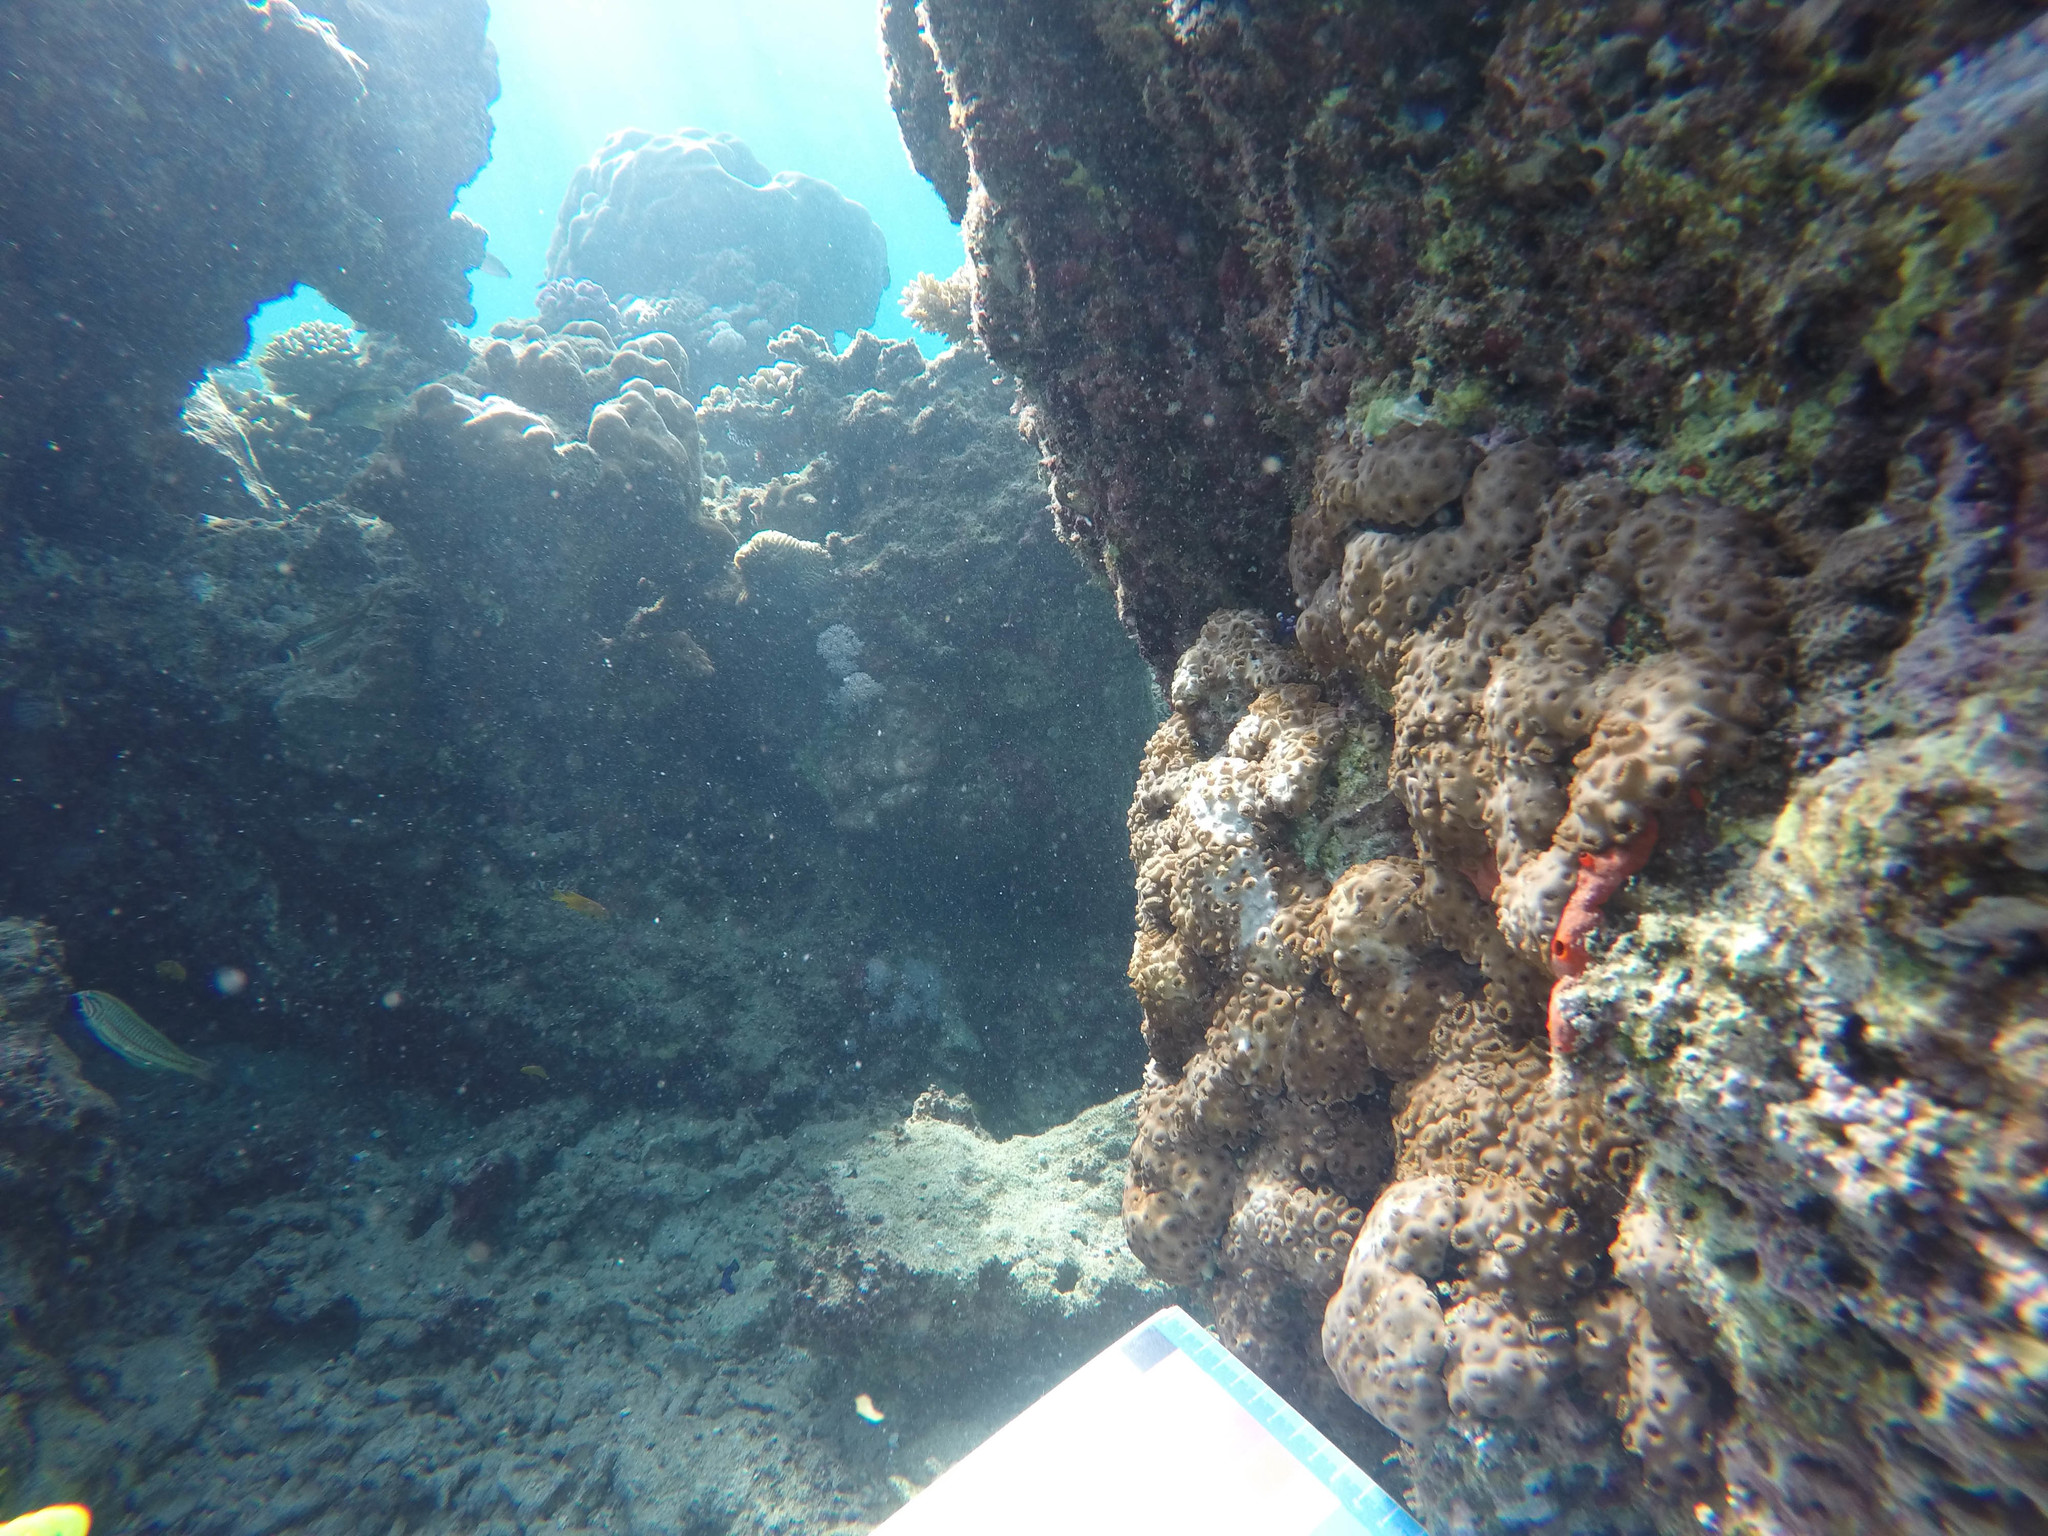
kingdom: Animalia
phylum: Chordata
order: Perciformes
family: Labridae
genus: Thalassoma
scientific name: Thalassoma rueppellii
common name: Klunzinger's wrasse
